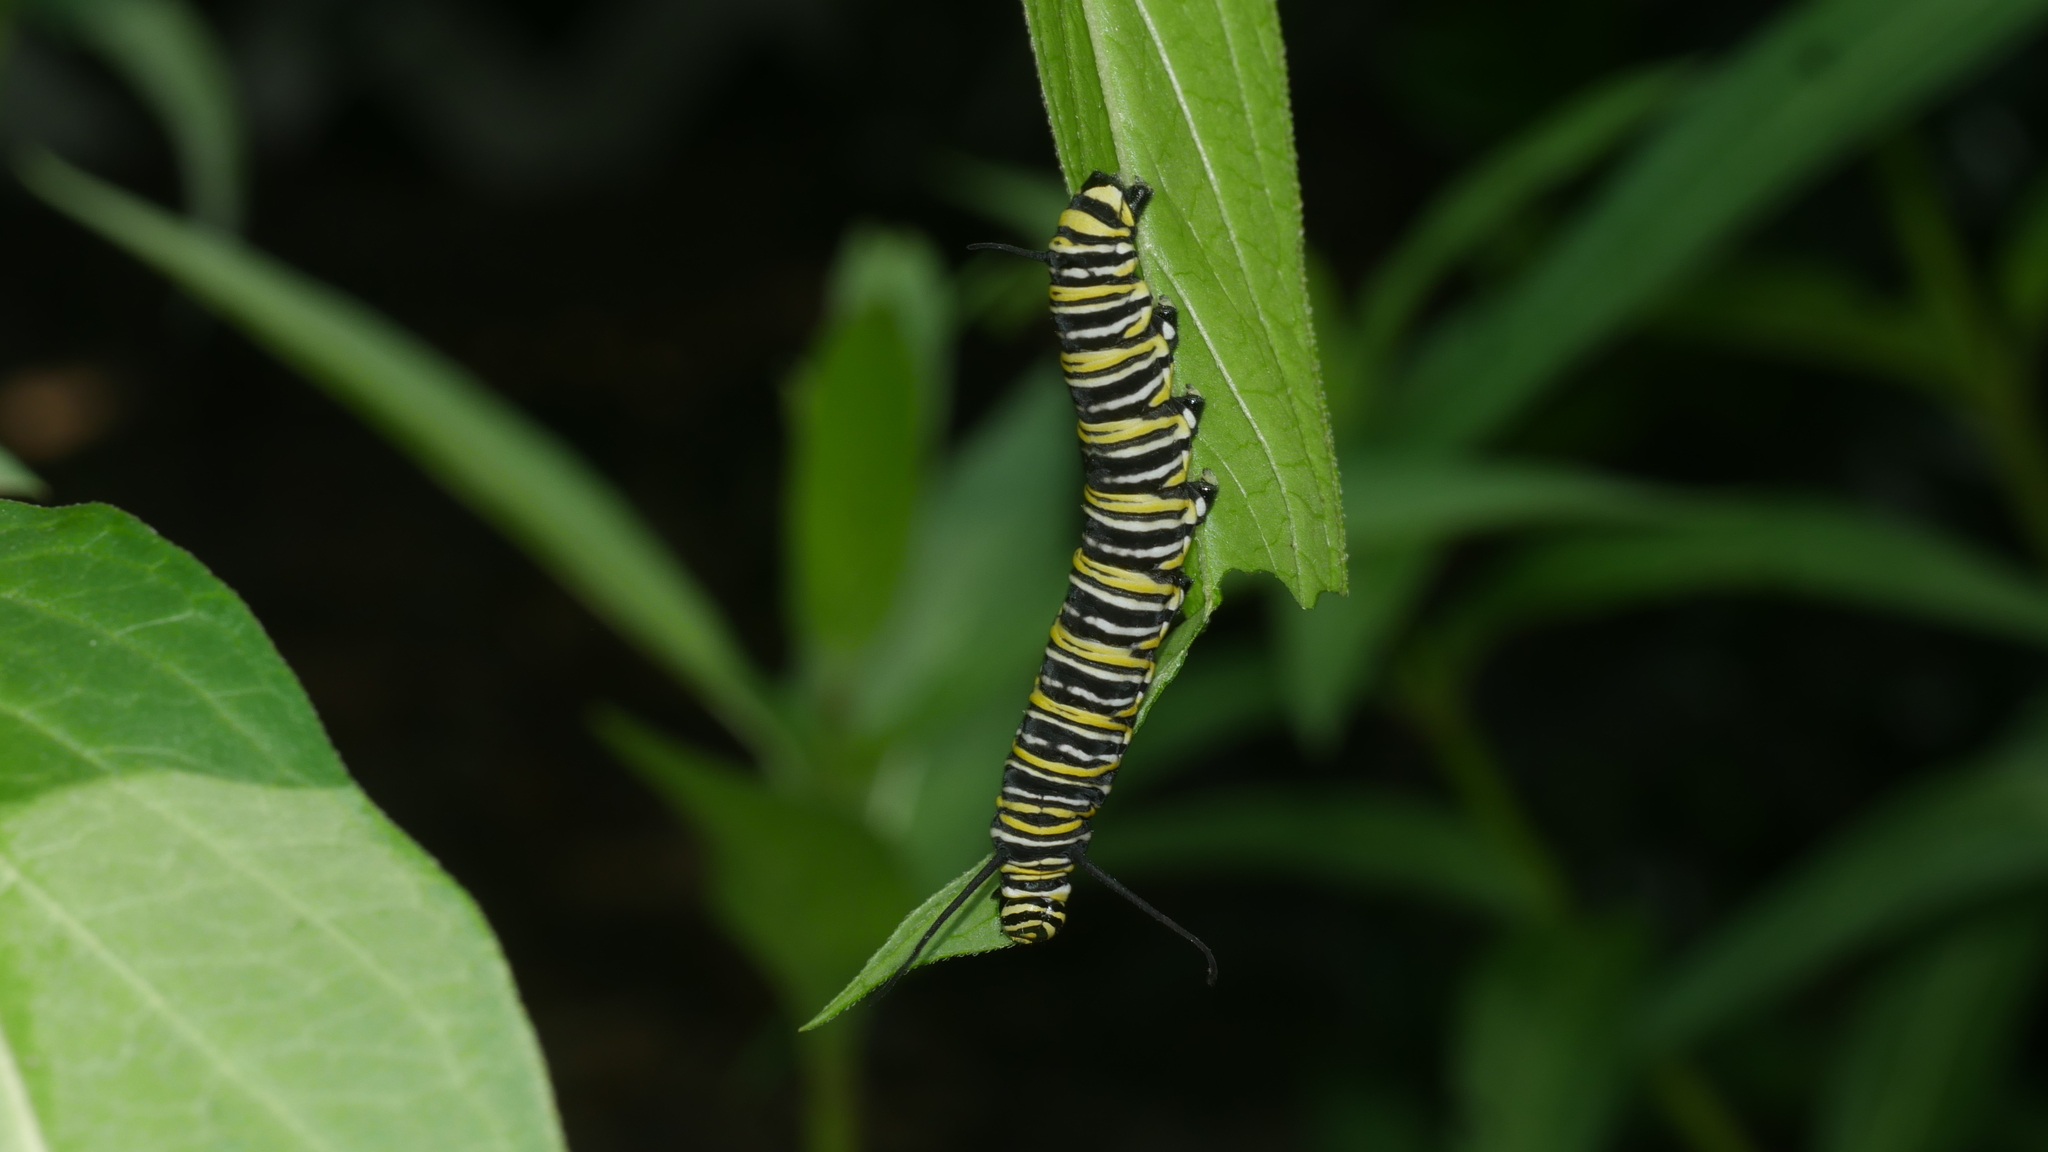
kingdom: Animalia
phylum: Arthropoda
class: Insecta
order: Lepidoptera
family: Nymphalidae
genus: Danaus
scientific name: Danaus plexippus
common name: Monarch
